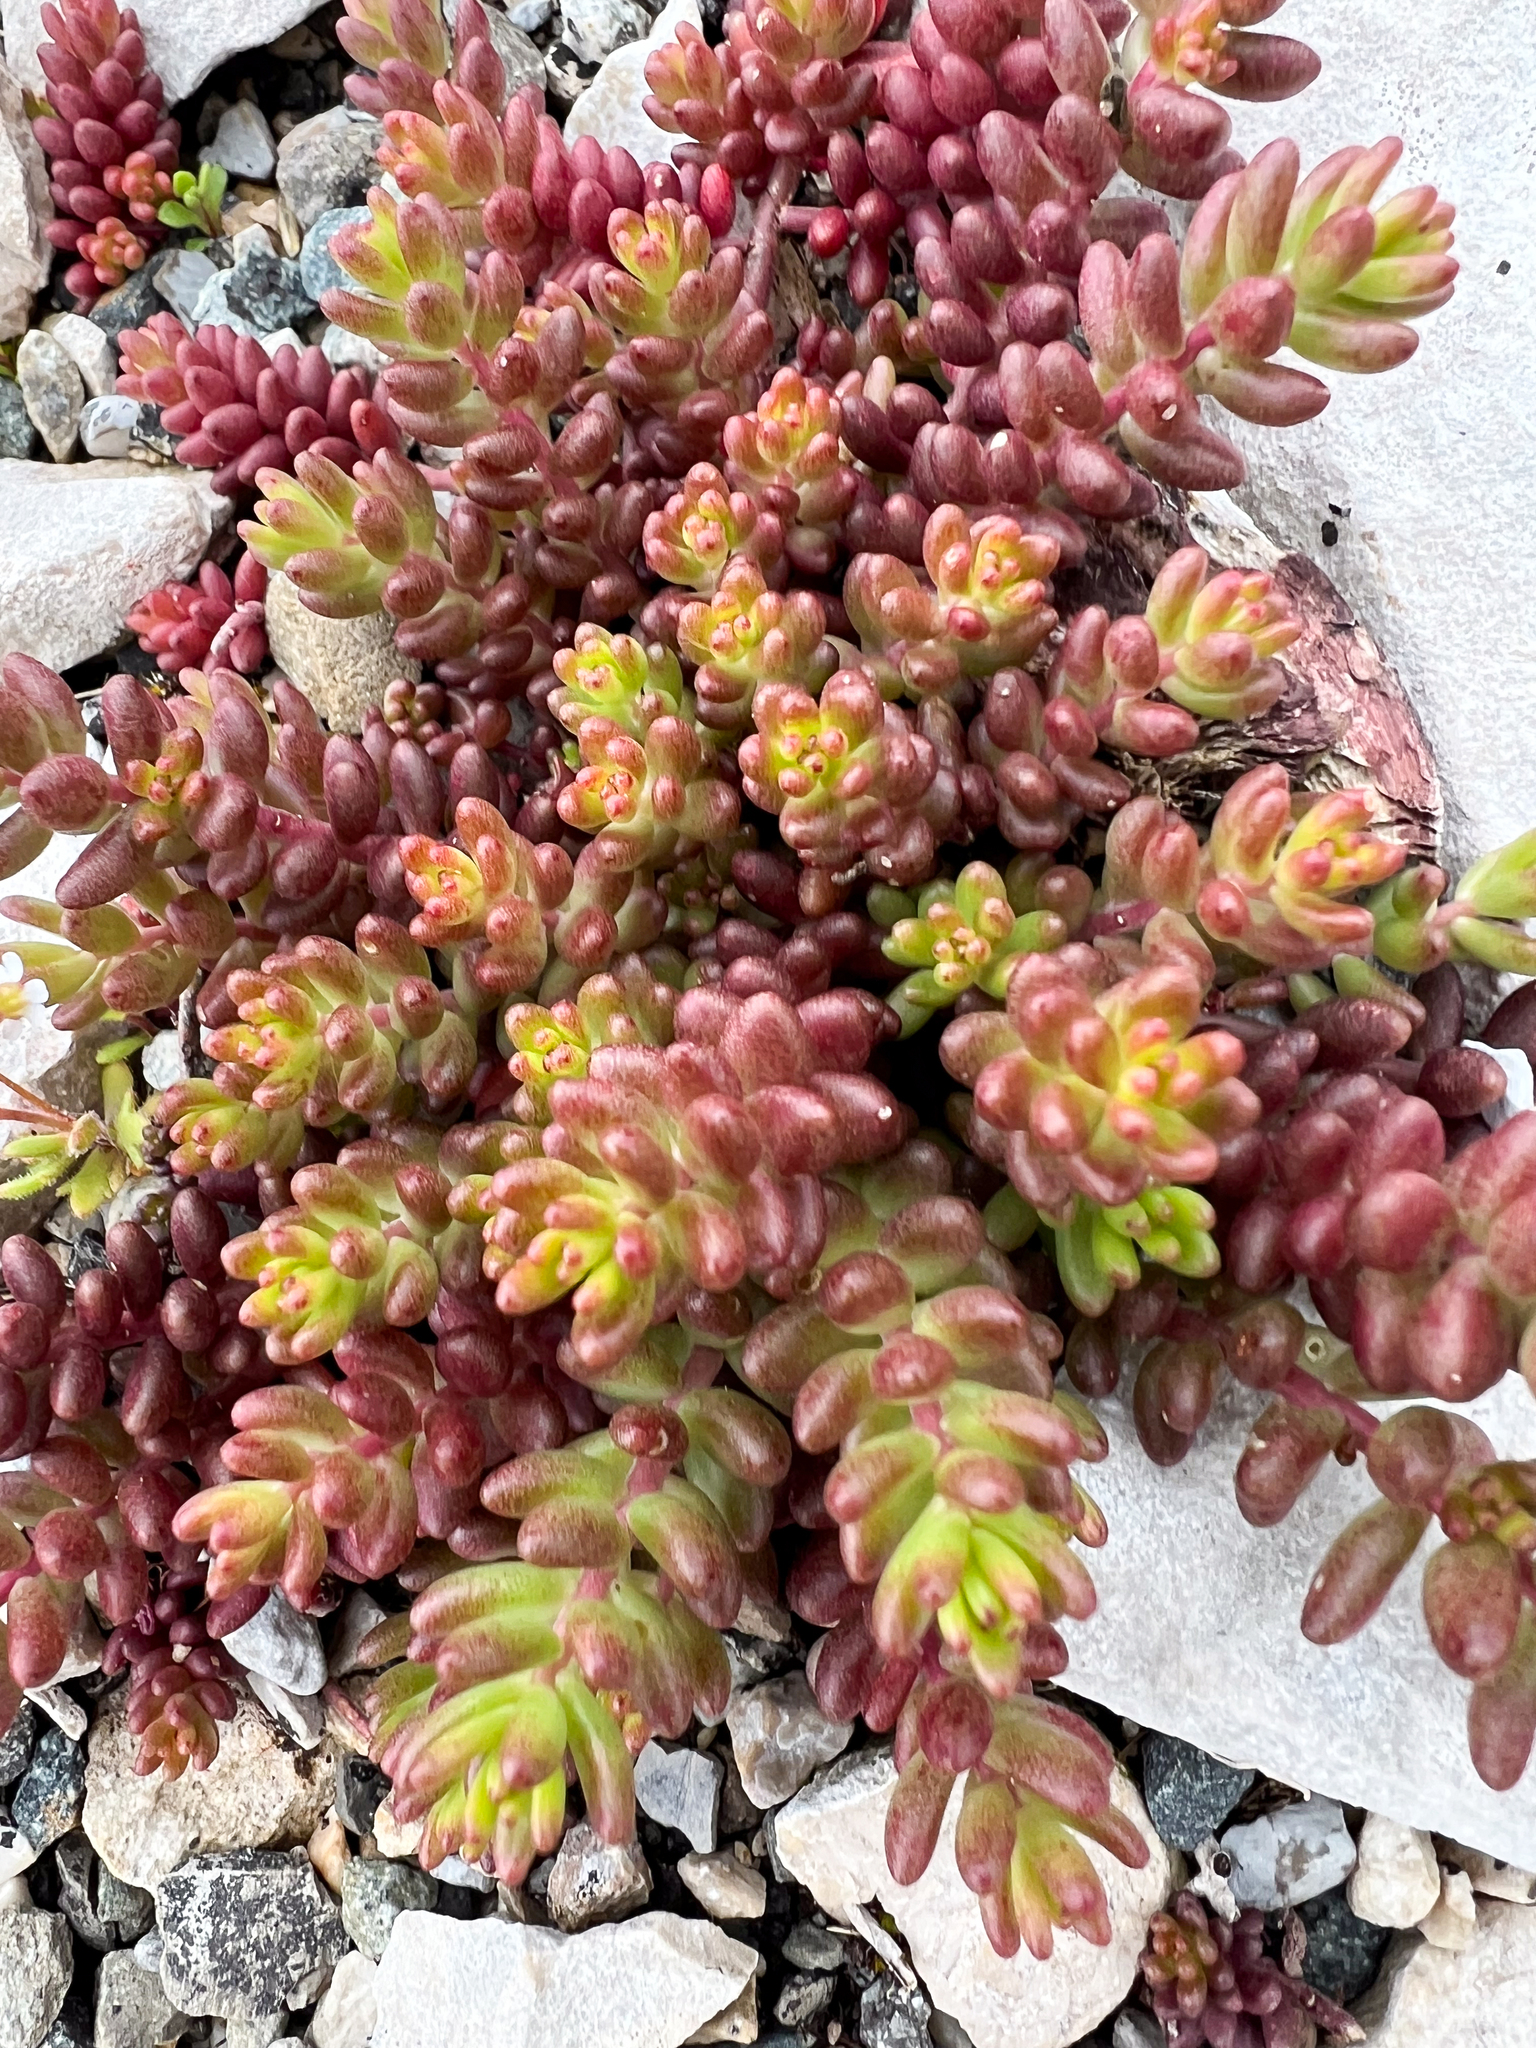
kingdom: Plantae
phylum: Tracheophyta
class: Magnoliopsida
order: Saxifragales
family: Crassulaceae
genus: Sedum
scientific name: Sedum album
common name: White stonecrop
